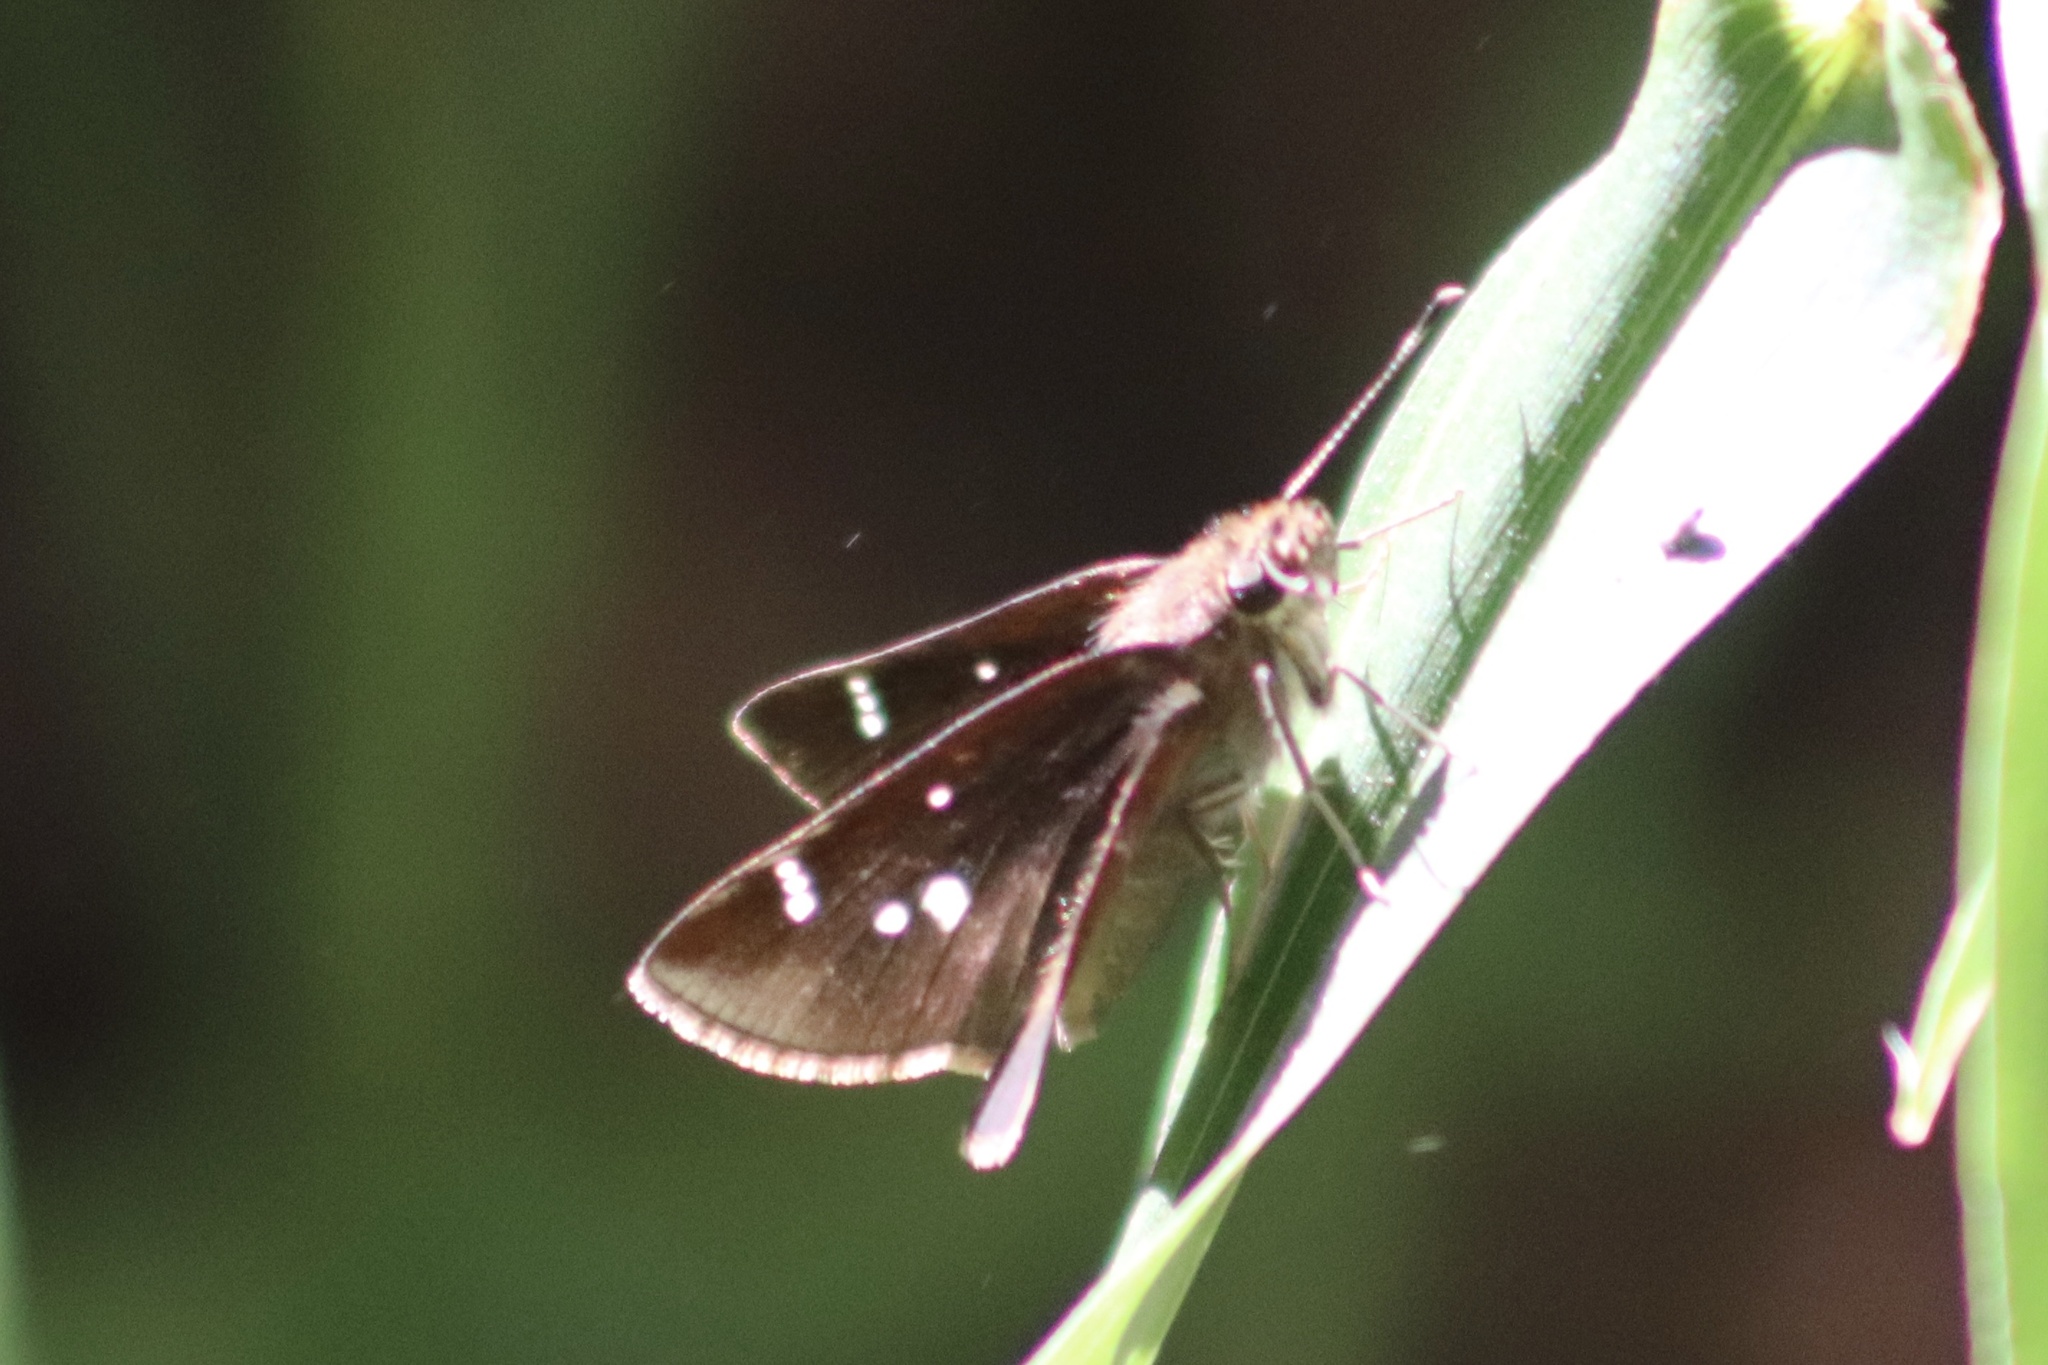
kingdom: Animalia
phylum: Arthropoda
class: Insecta
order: Lepidoptera
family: Hesperiidae
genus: Lerema
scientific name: Lerema accius
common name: Clouded skipper
